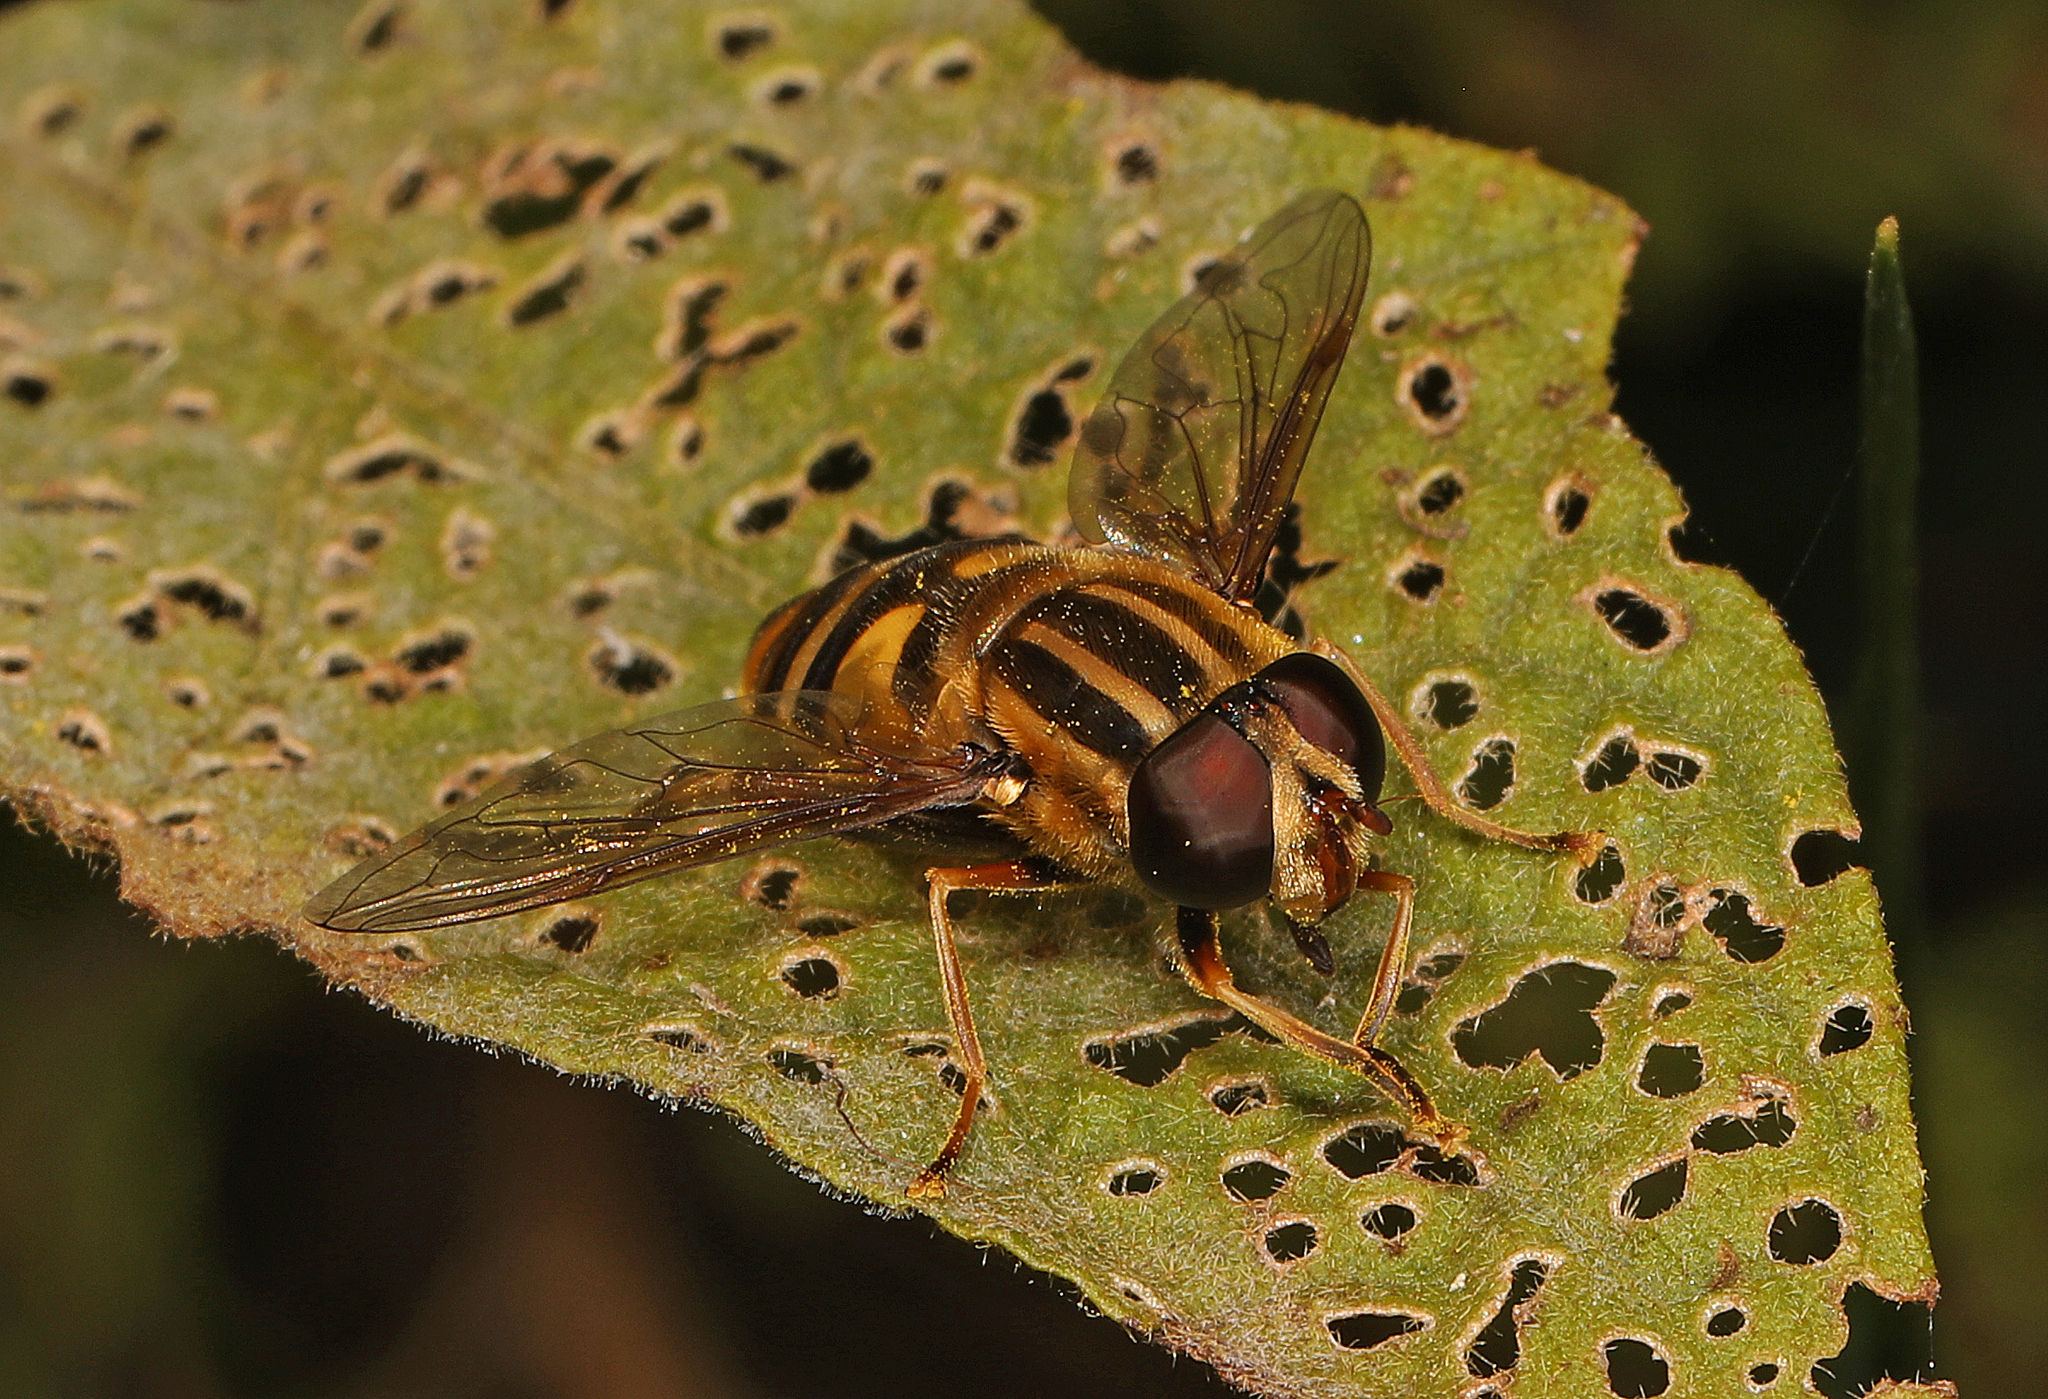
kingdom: Animalia
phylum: Arthropoda
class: Insecta
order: Diptera
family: Syrphidae
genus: Helophilus
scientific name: Helophilus fasciatus
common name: Narrow-headed marsh fly
